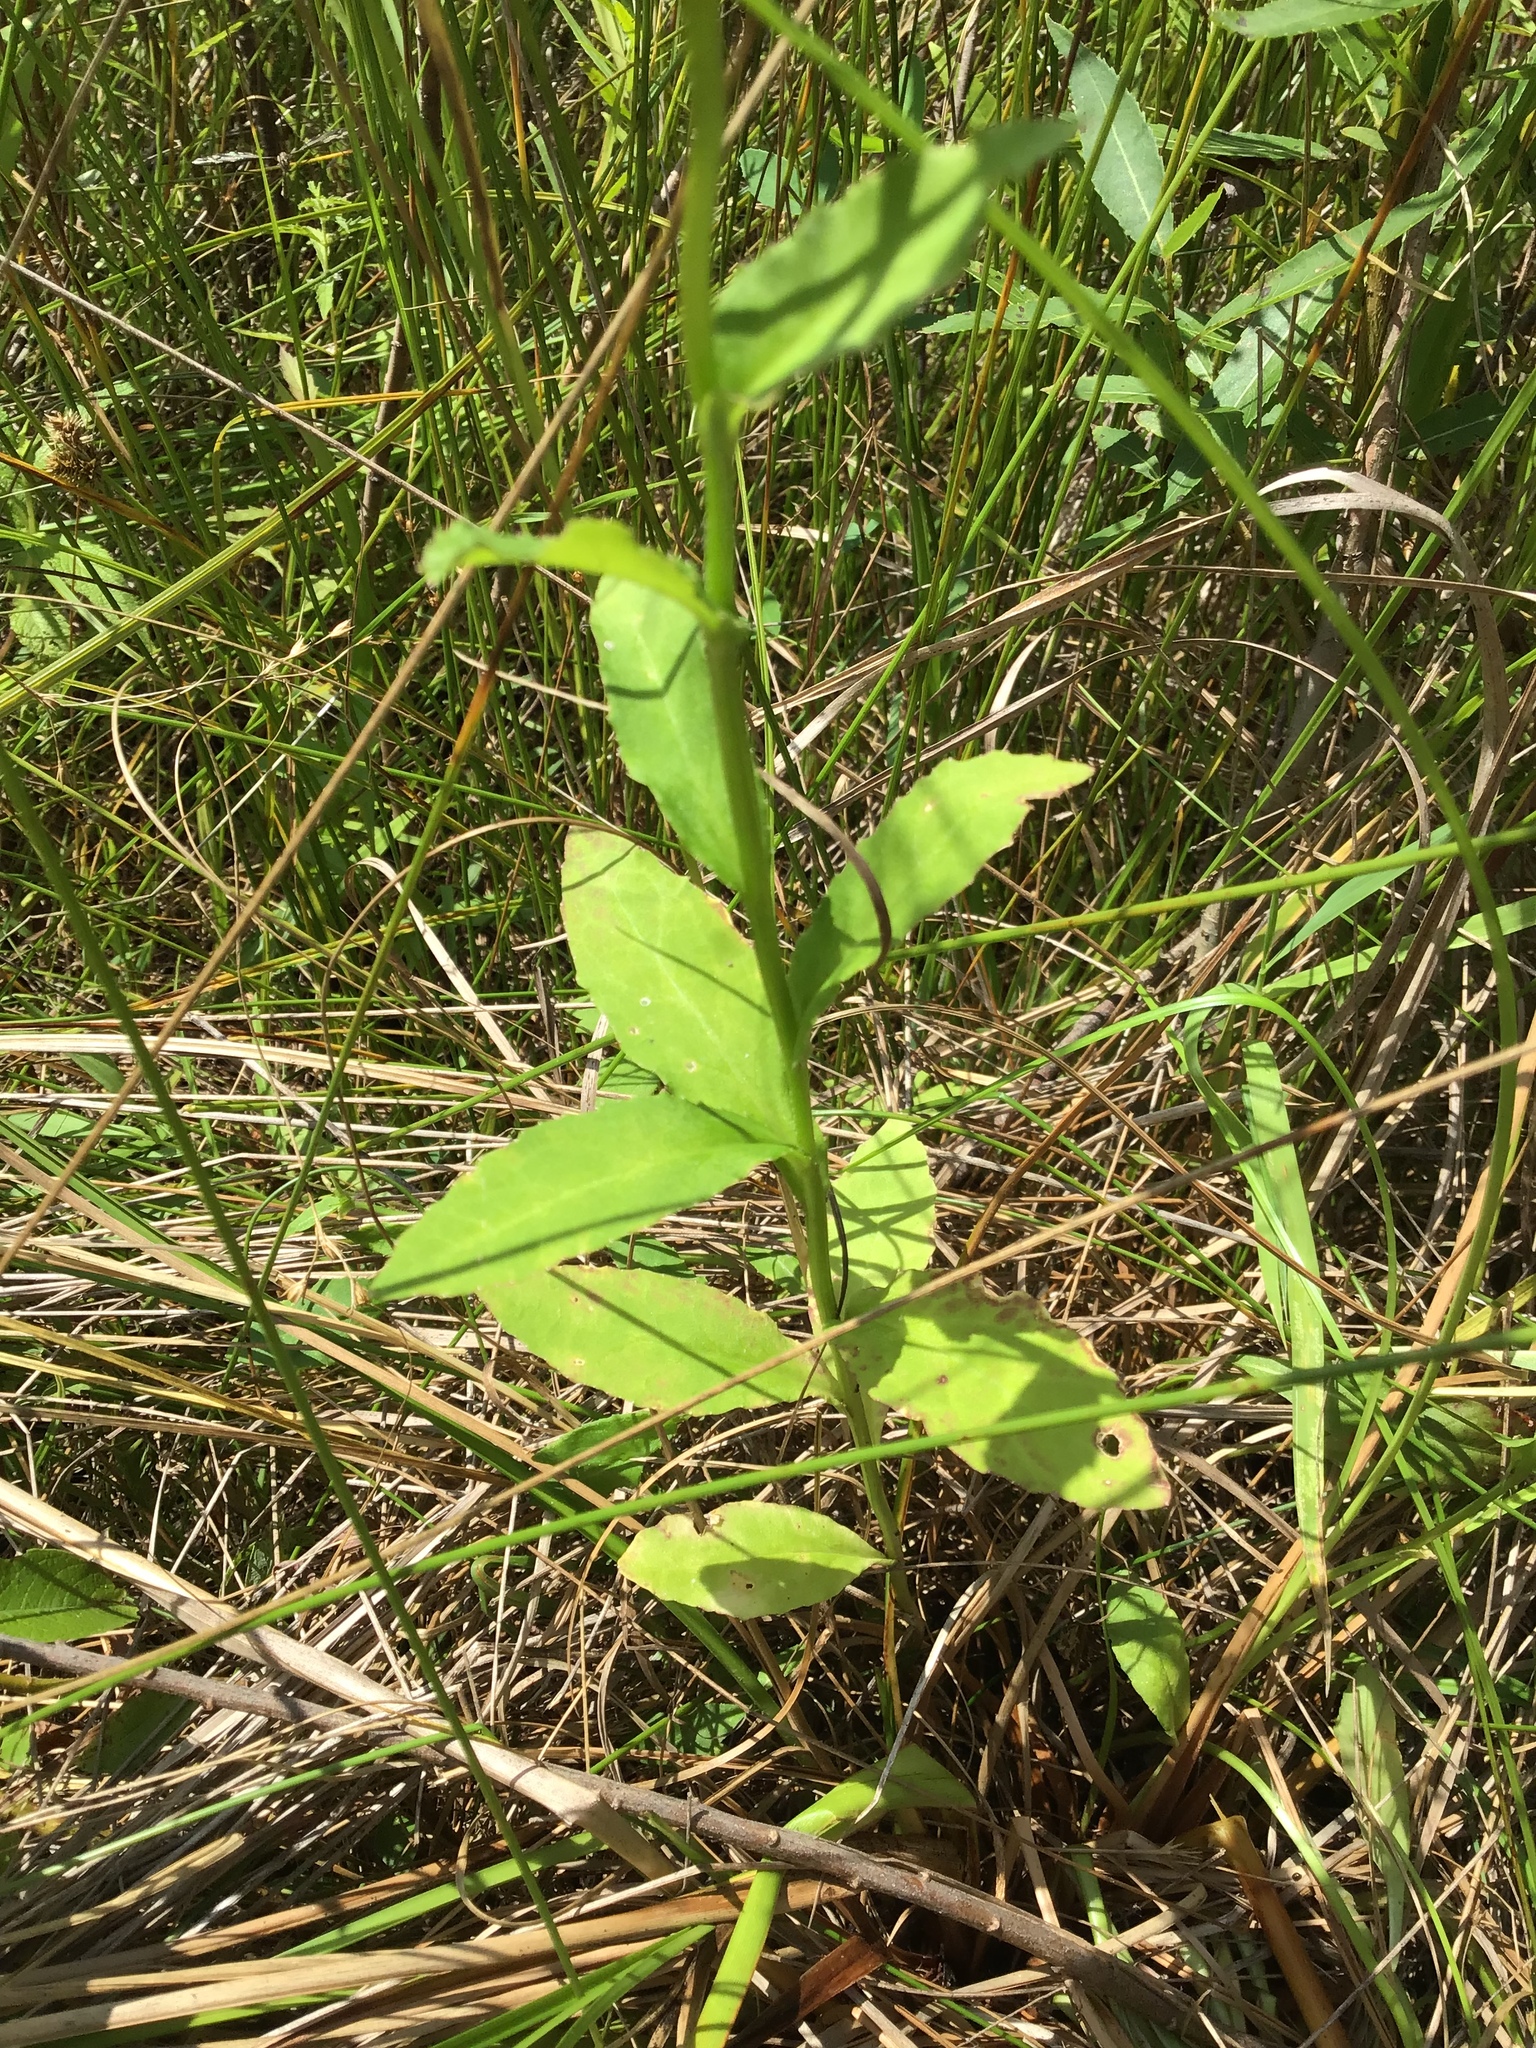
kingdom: Plantae
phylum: Tracheophyta
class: Magnoliopsida
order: Asterales
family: Campanulaceae
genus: Lobelia
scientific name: Lobelia siphilitica
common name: Great lobelia
